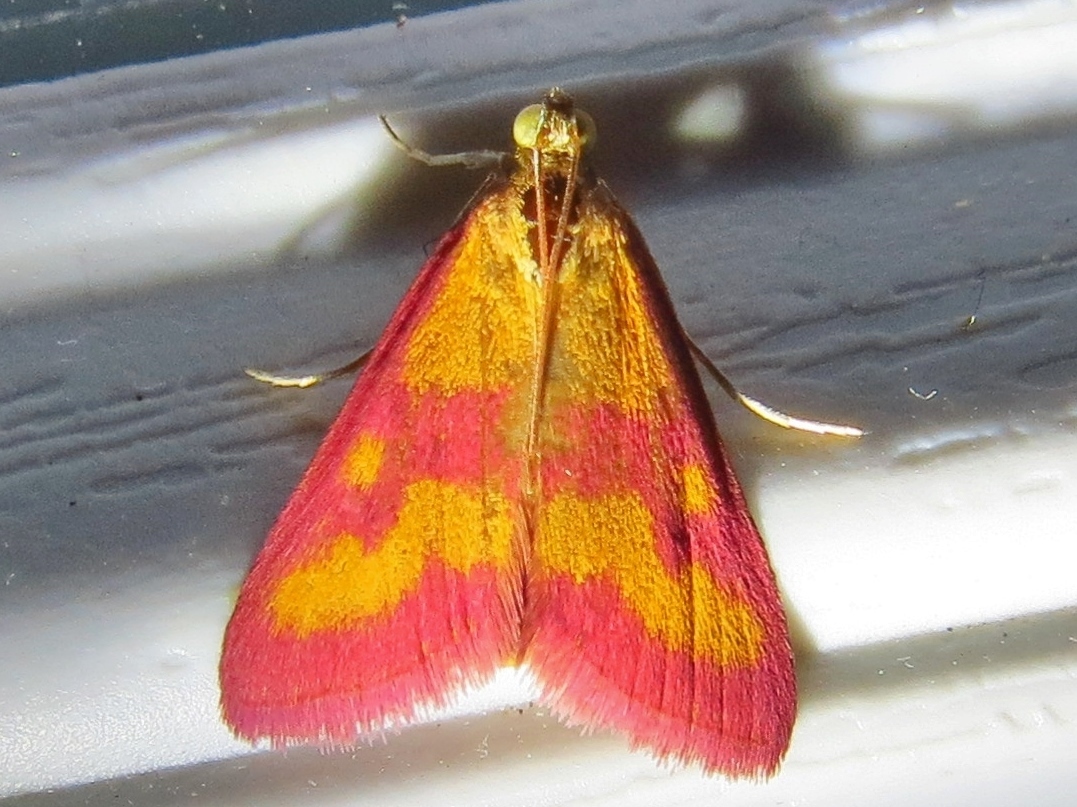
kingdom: Animalia
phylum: Arthropoda
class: Insecta
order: Lepidoptera
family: Crambidae
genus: Pyrausta
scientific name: Pyrausta laticlavia
